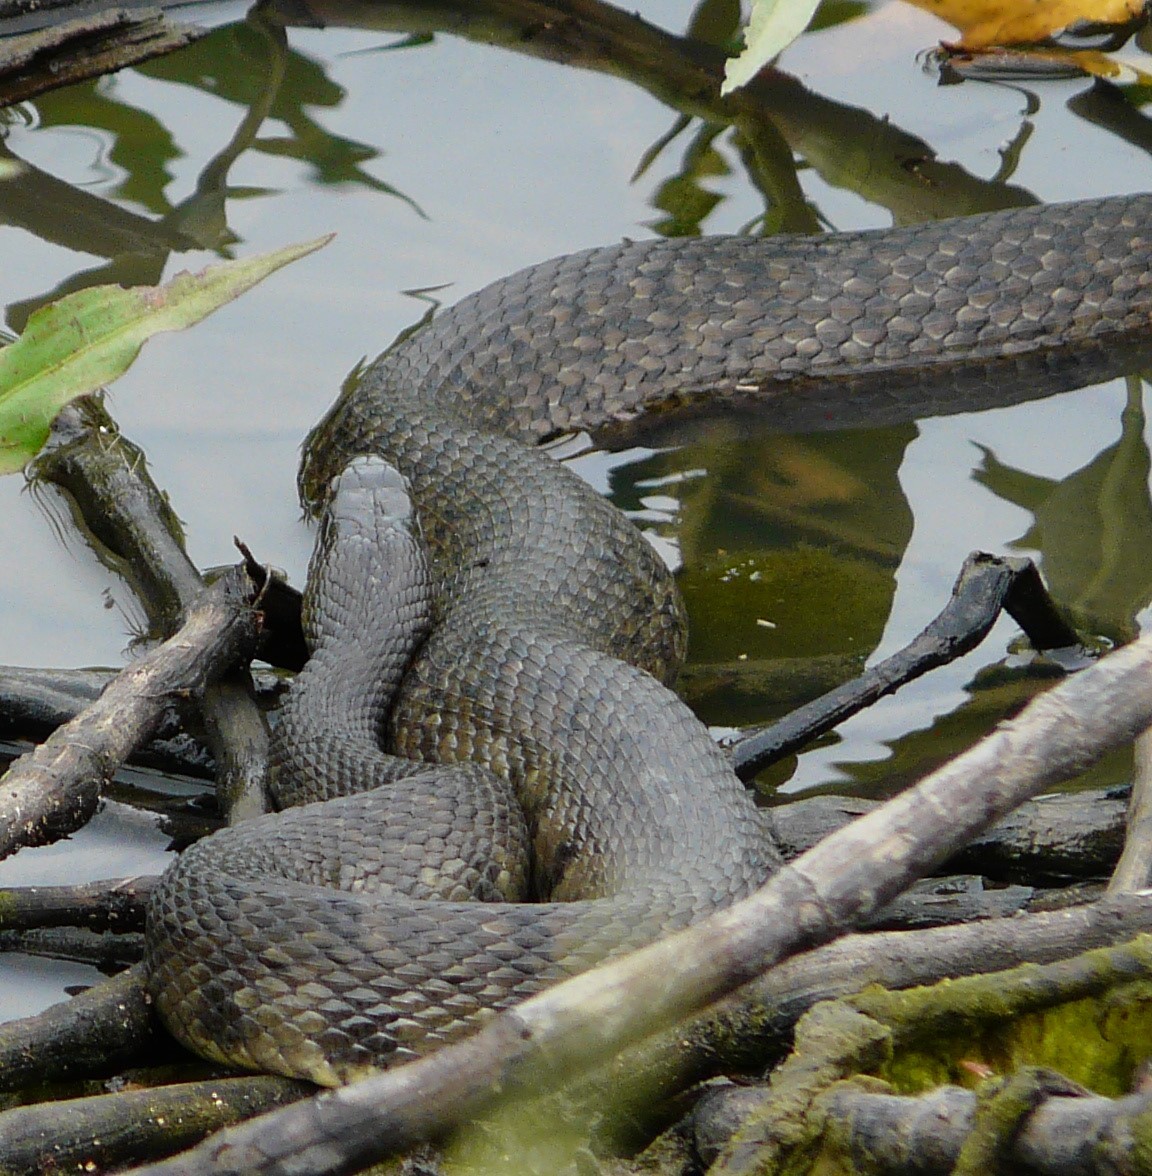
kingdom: Animalia
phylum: Chordata
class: Squamata
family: Colubridae
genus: Nerodia
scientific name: Nerodia cyclopion
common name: Mississippi green water snake
